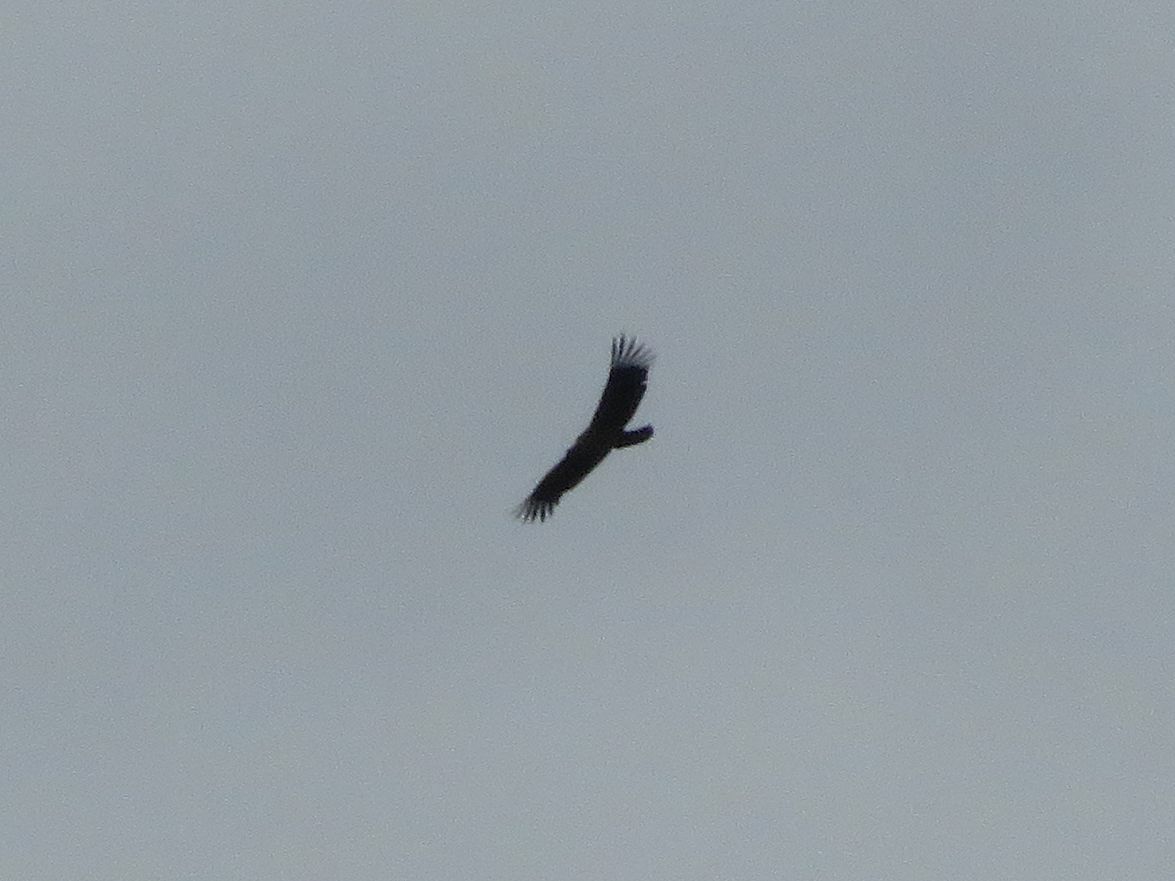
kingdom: Animalia
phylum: Chordata
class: Aves
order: Accipitriformes
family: Cathartidae
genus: Vultur
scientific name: Vultur gryphus
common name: Andean condor
